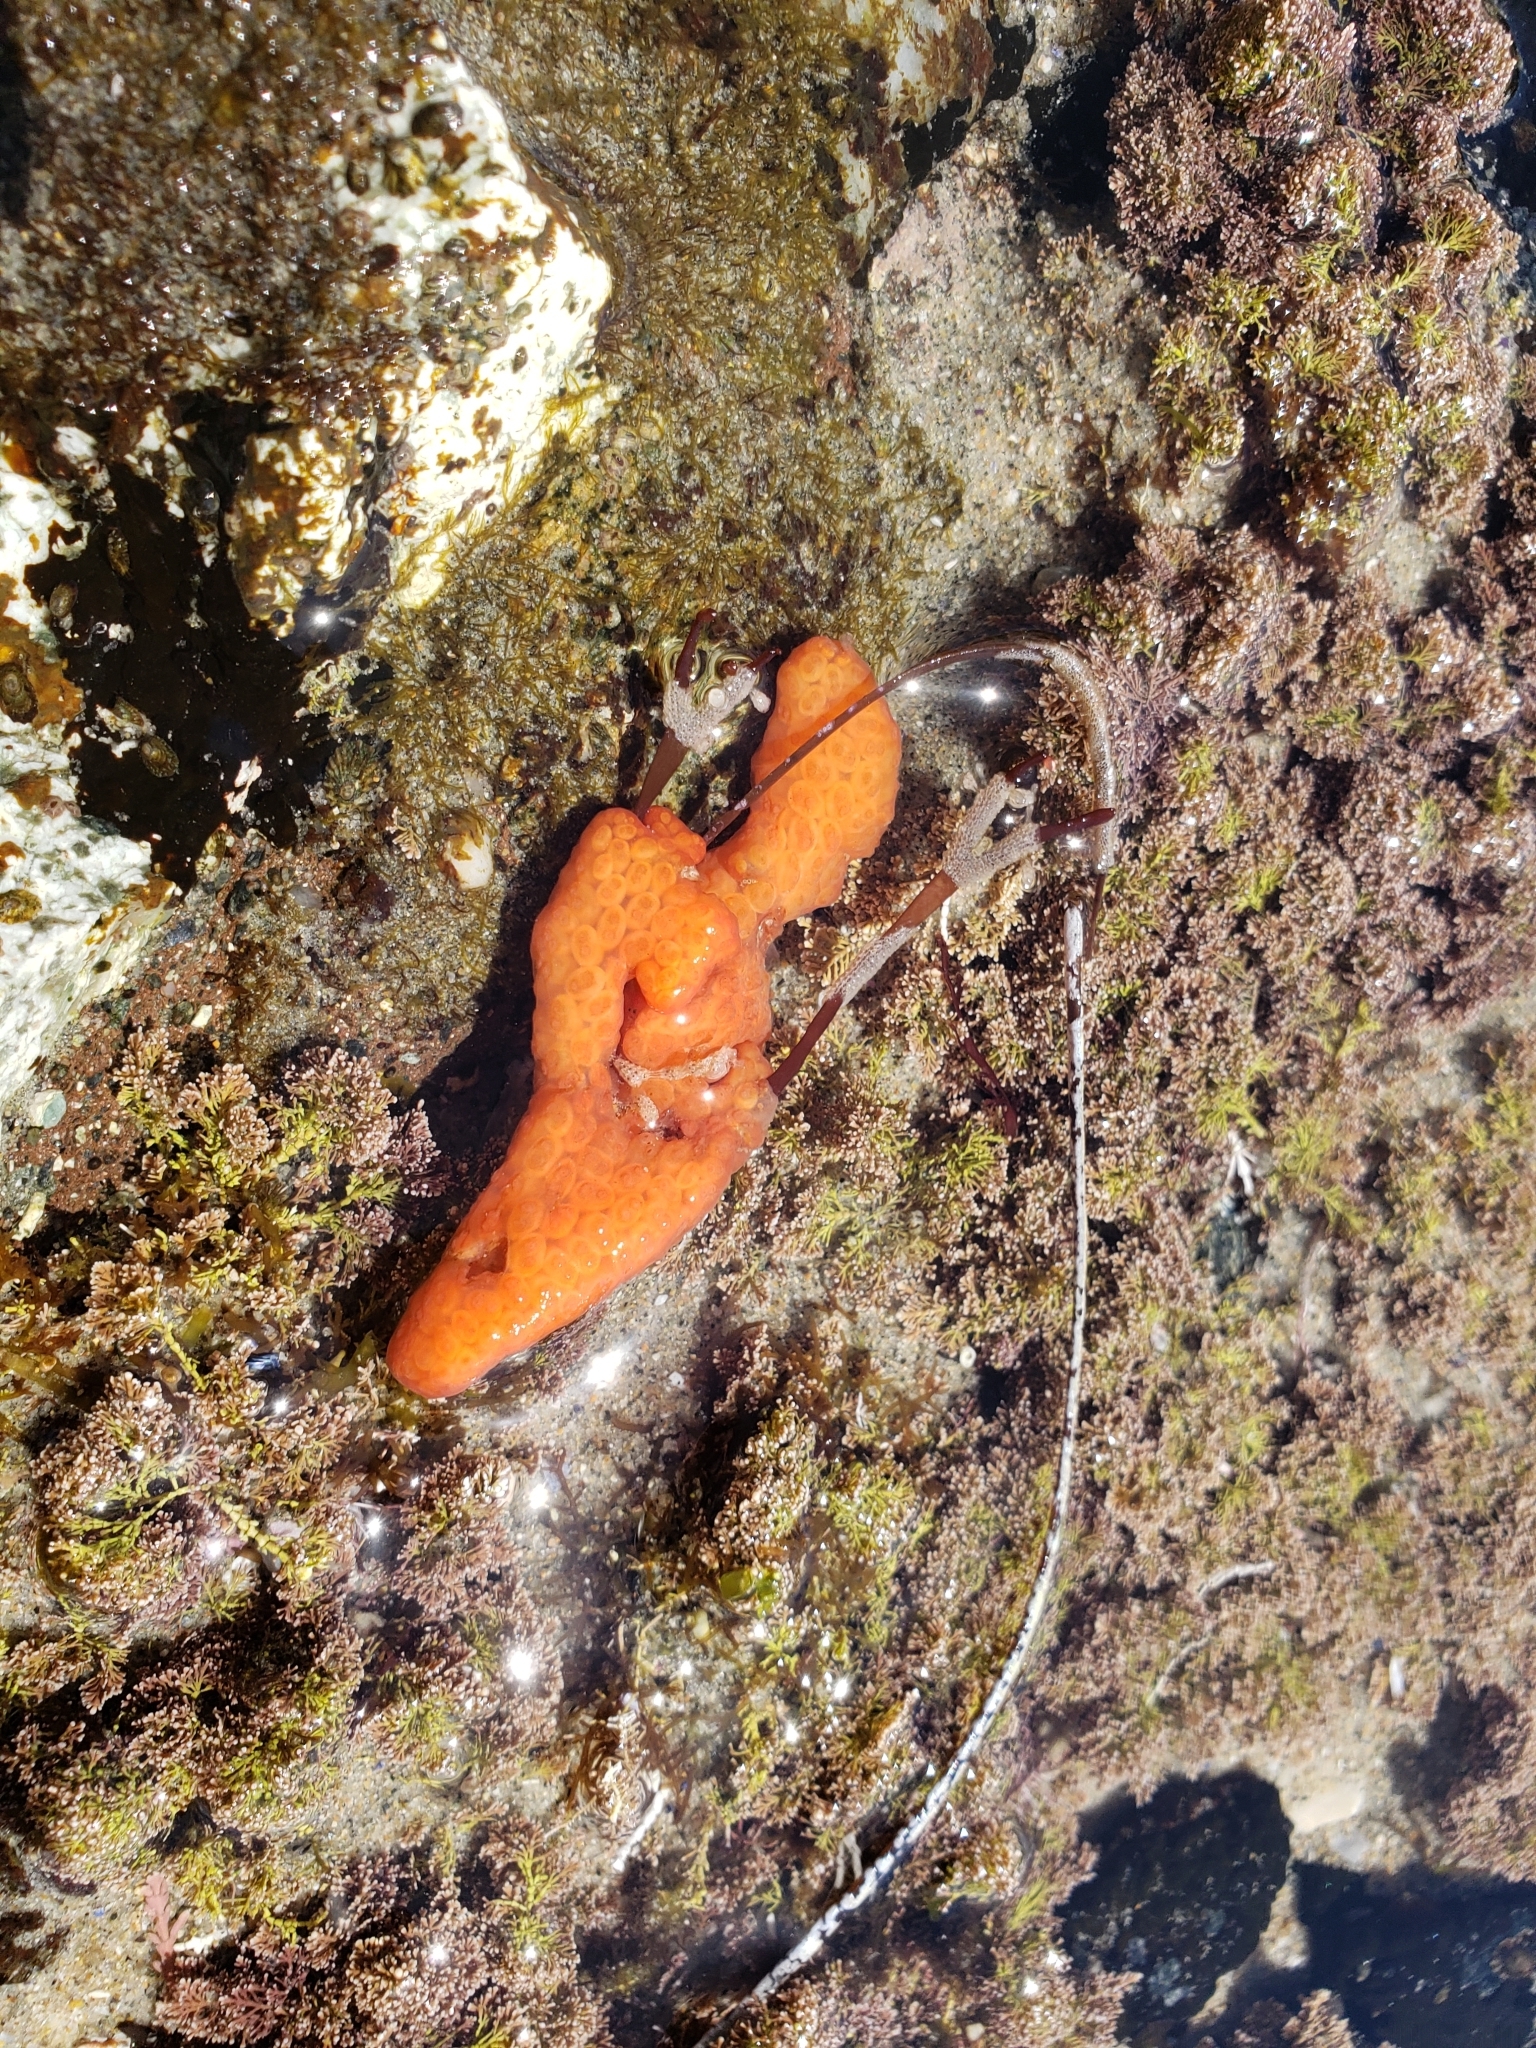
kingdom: Animalia
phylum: Chordata
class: Ascidiacea
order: Stolidobranchia
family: Styelidae
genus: Metandrocarpa
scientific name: Metandrocarpa dura
